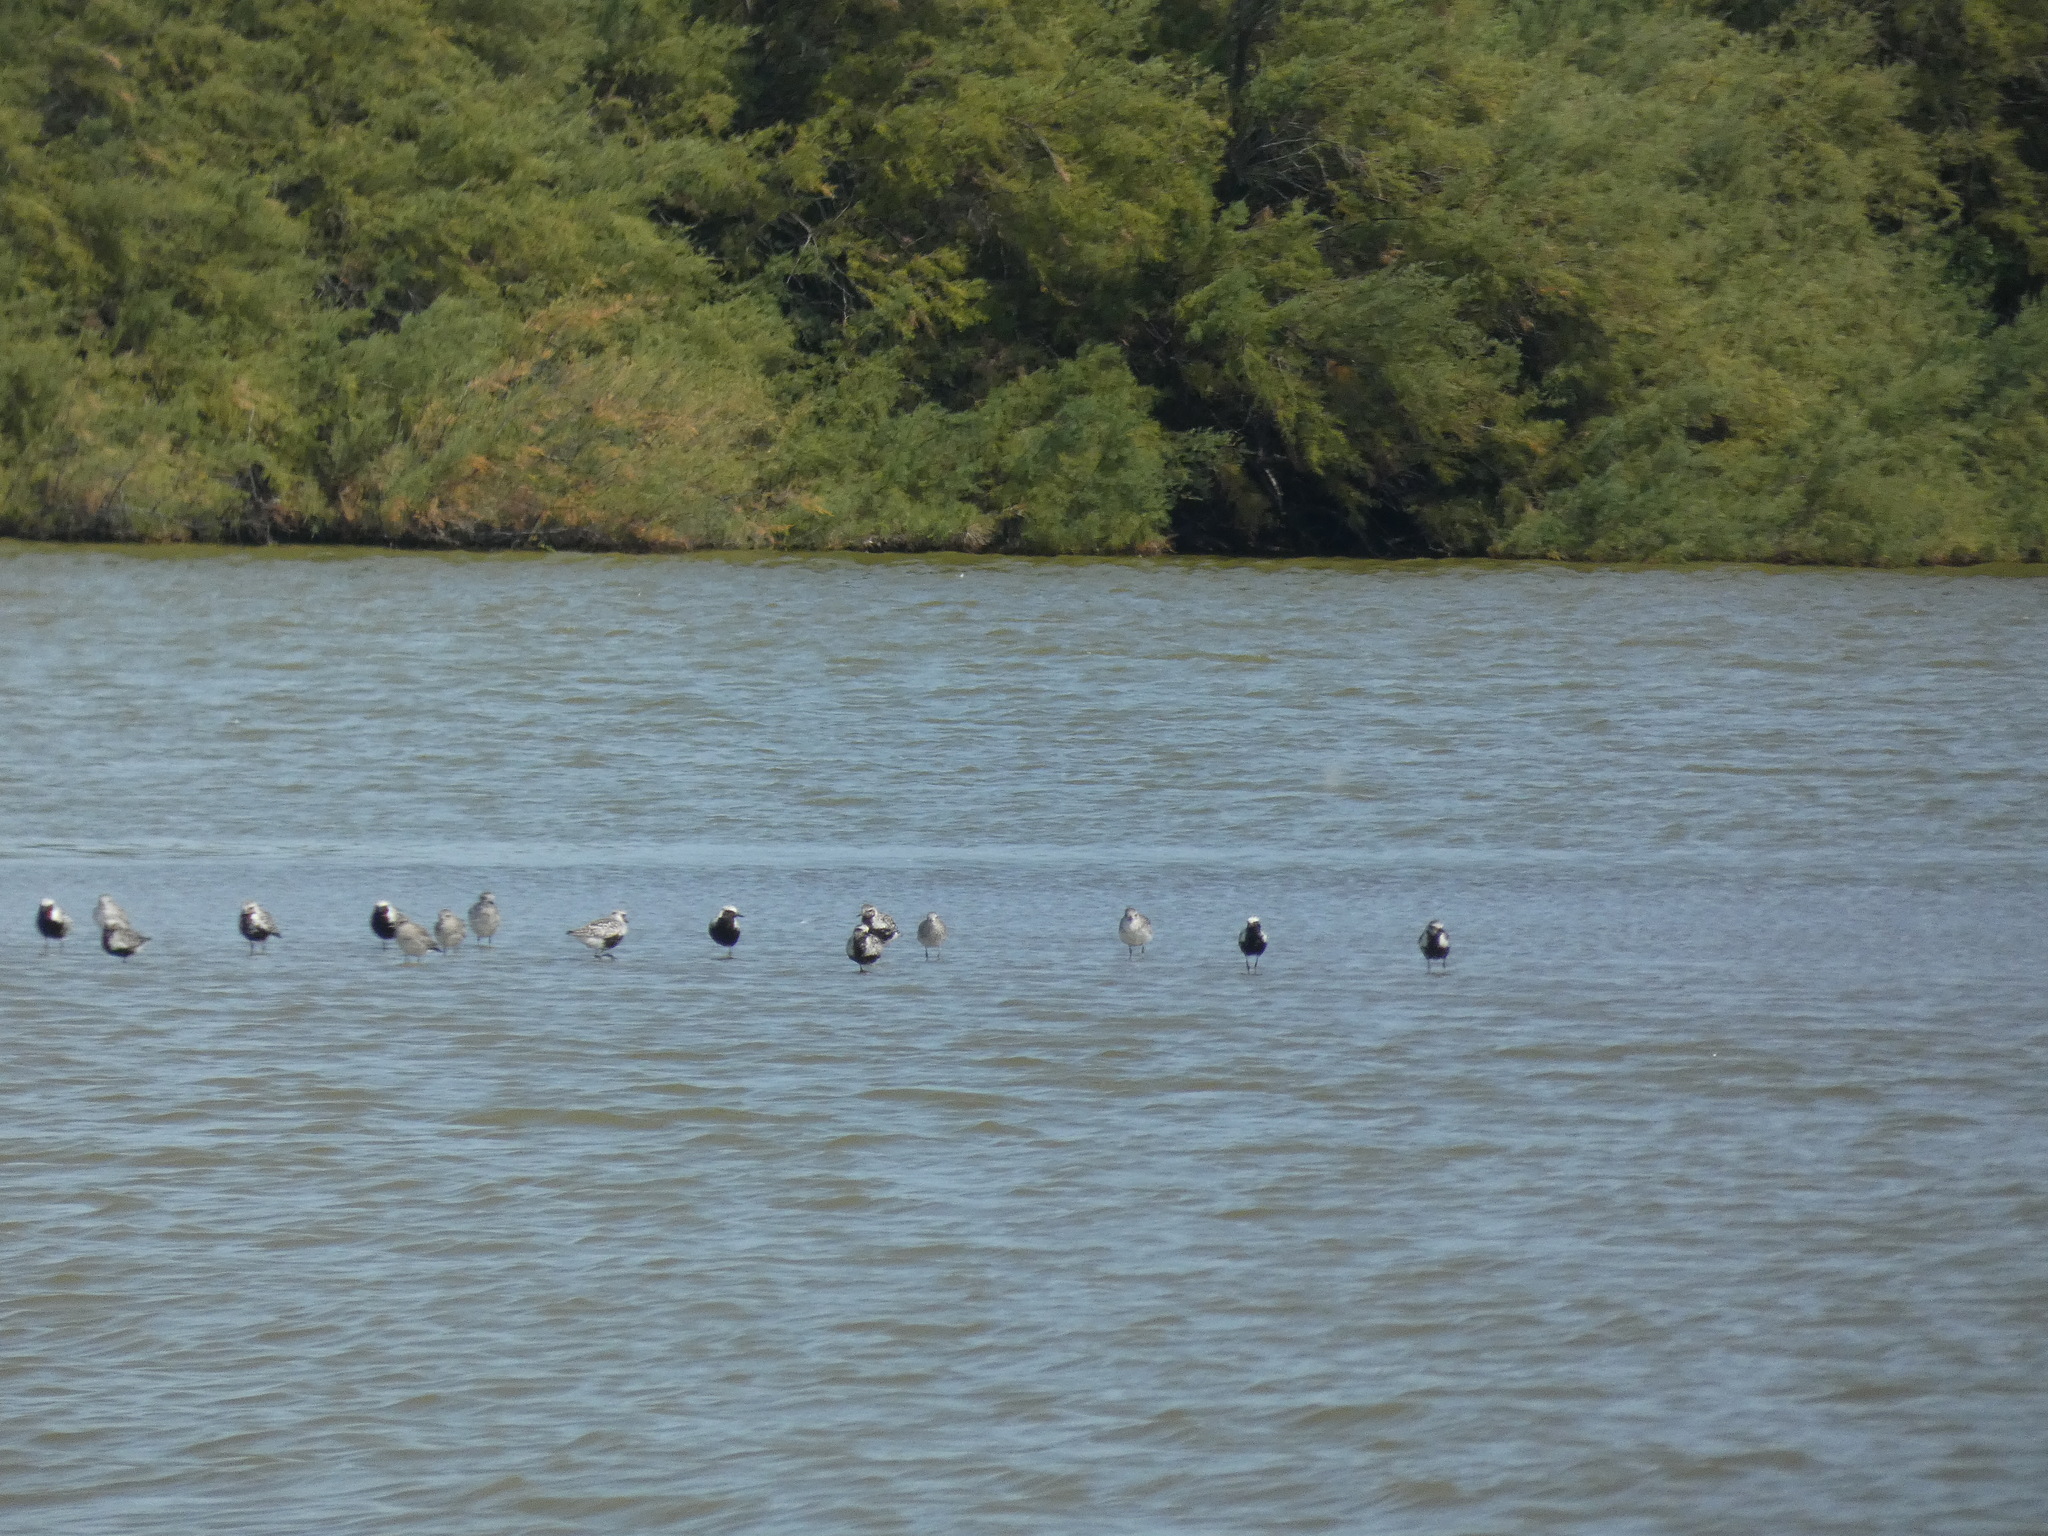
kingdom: Animalia
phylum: Chordata
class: Aves
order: Charadriiformes
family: Charadriidae
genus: Pluvialis
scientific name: Pluvialis squatarola
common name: Grey plover
